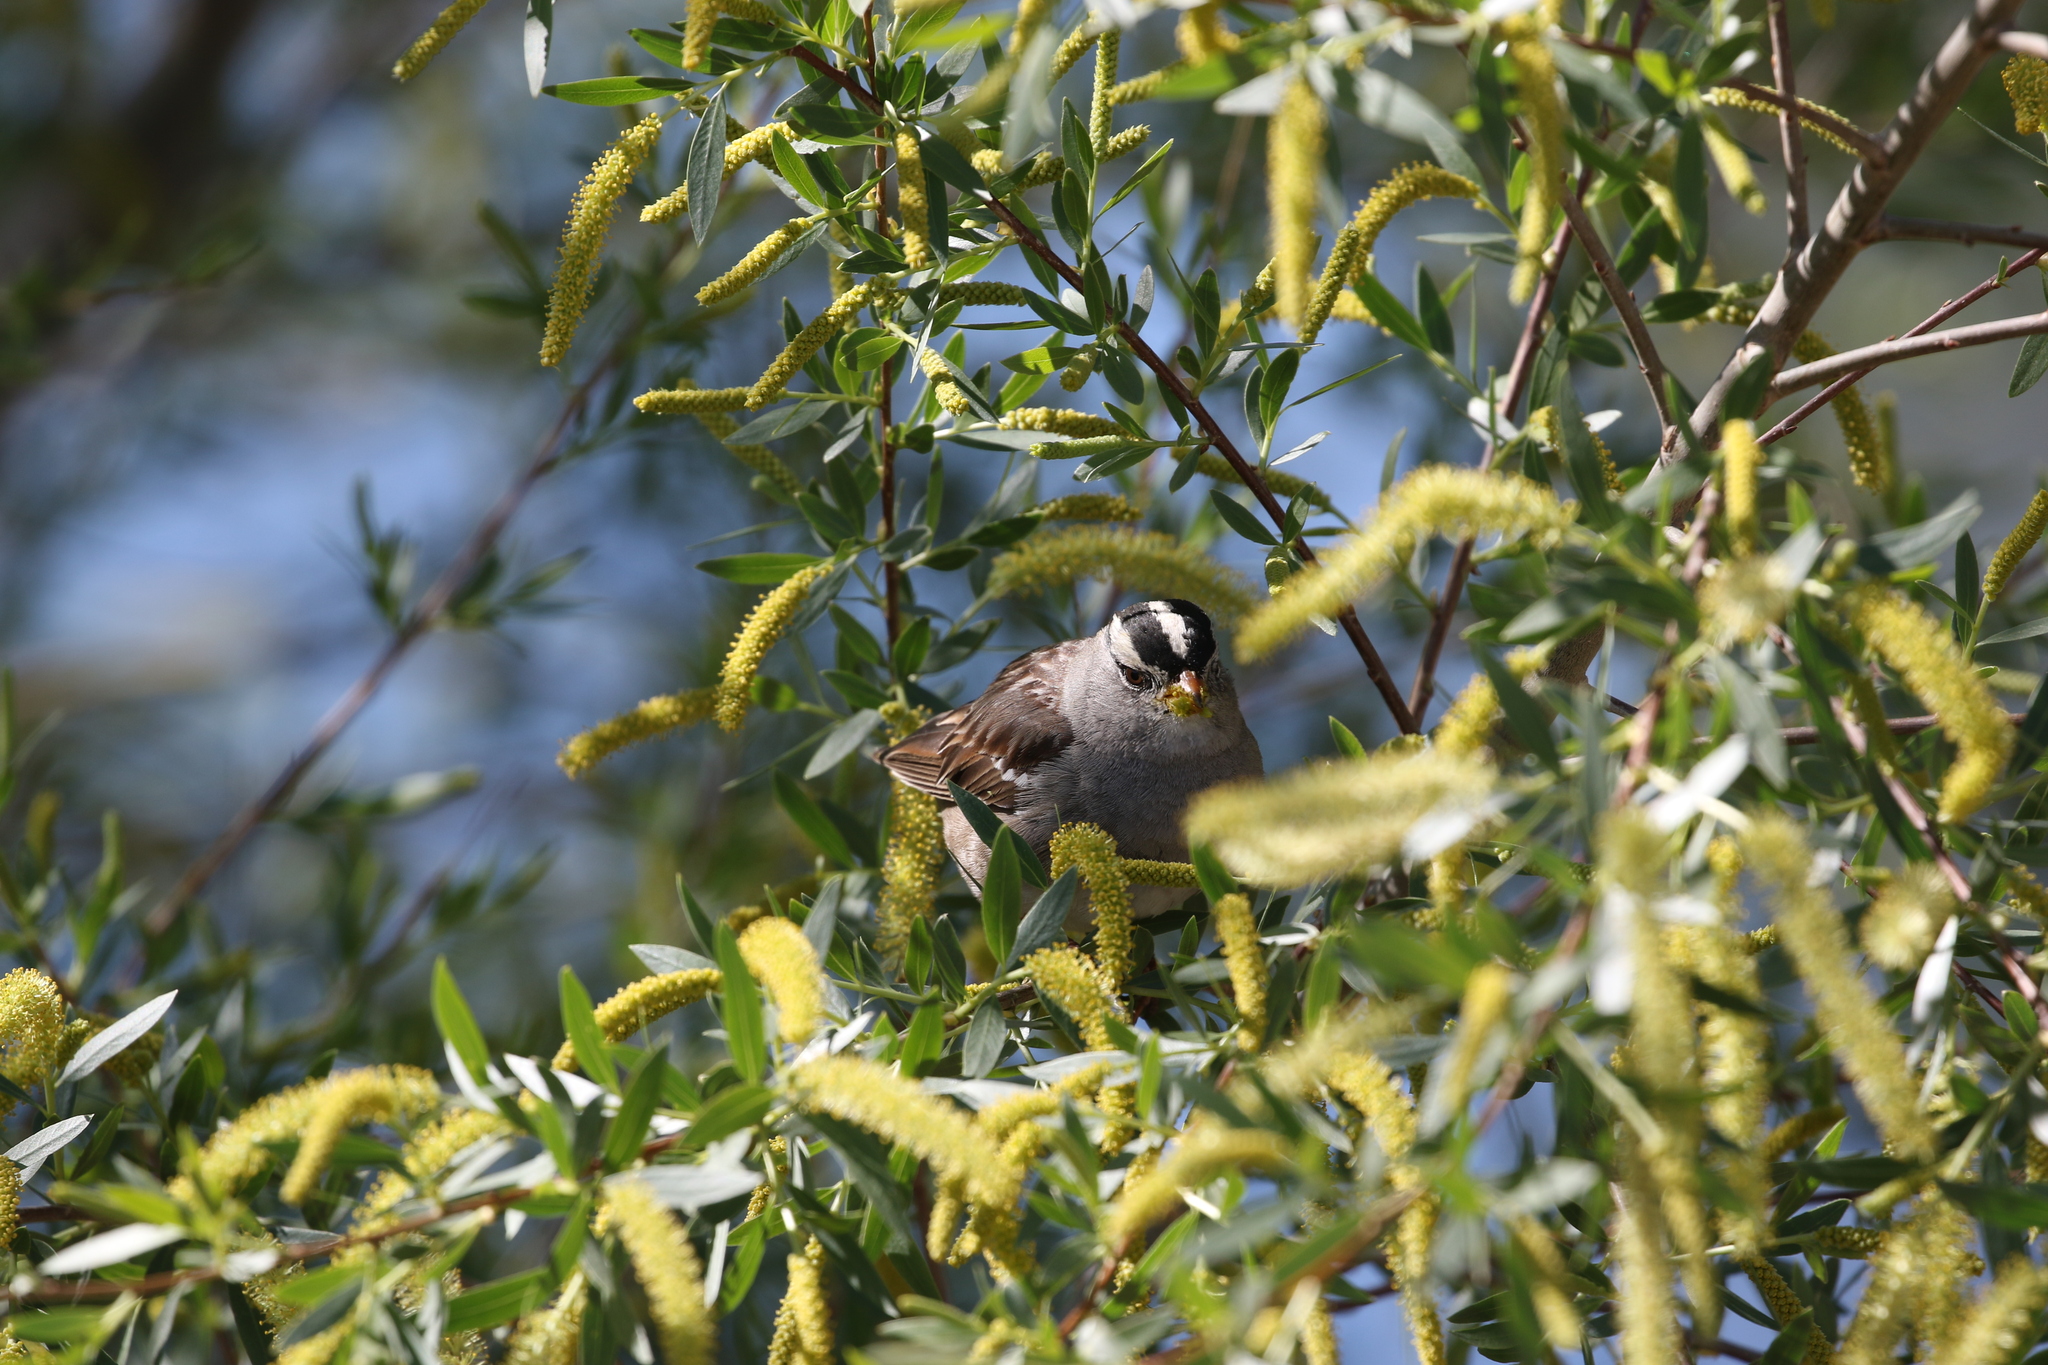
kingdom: Animalia
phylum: Chordata
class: Aves
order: Passeriformes
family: Passerellidae
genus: Zonotrichia
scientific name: Zonotrichia leucophrys
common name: White-crowned sparrow
